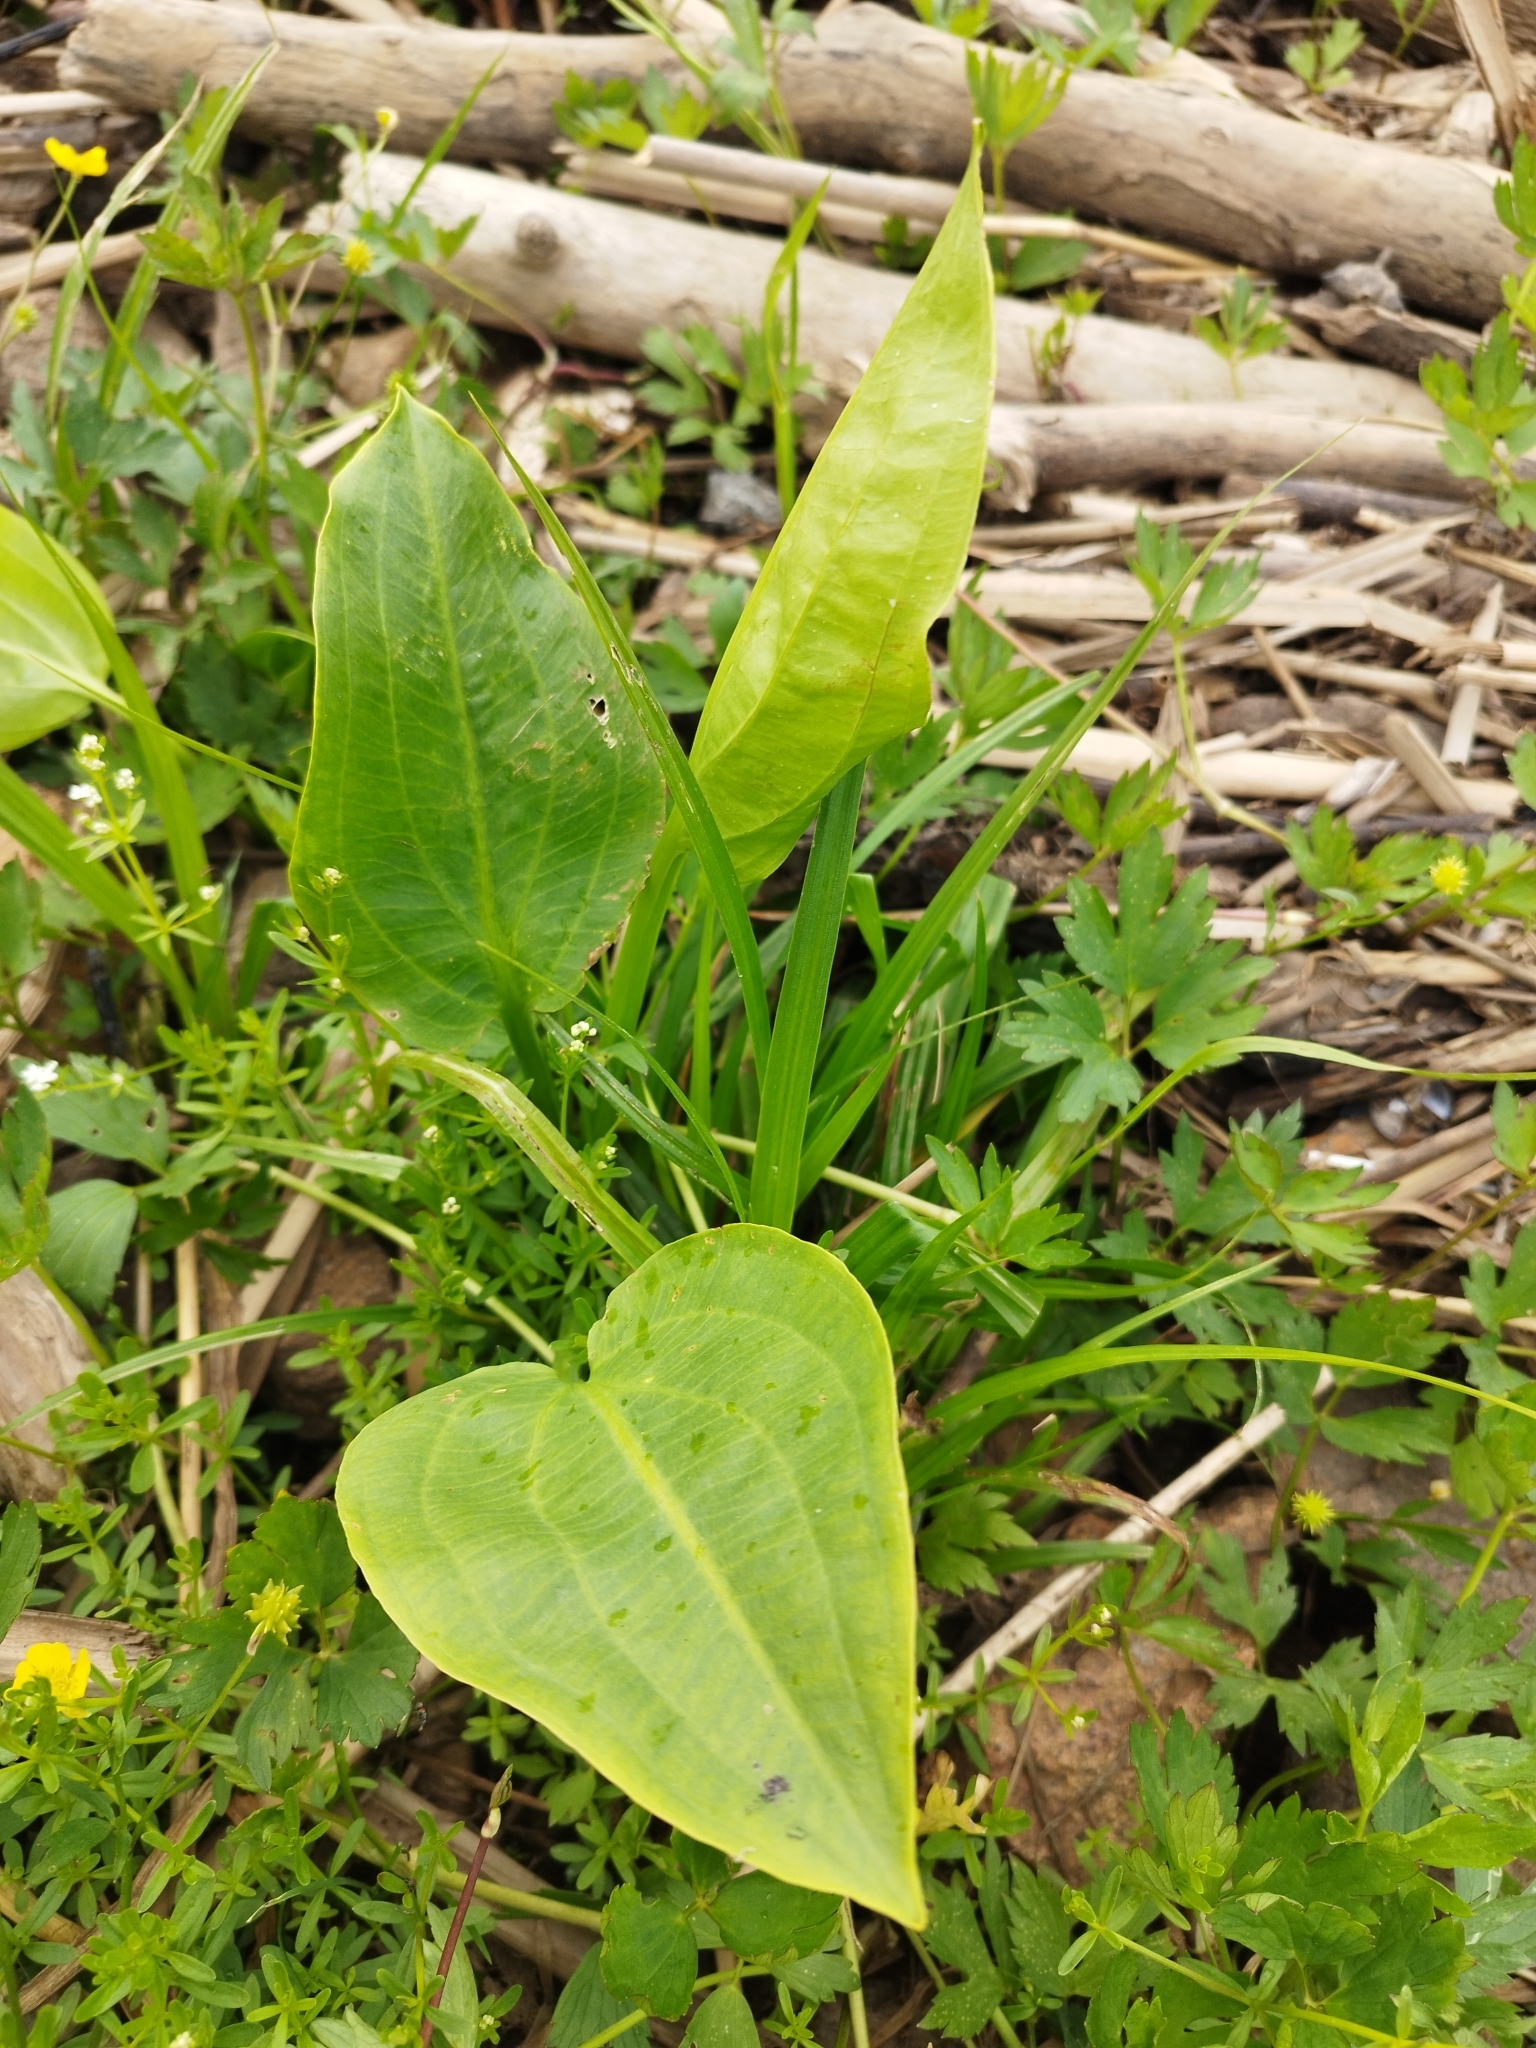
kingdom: Plantae
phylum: Tracheophyta
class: Liliopsida
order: Alismatales
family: Alismataceae
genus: Alisma
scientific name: Alisma plantago-aquatica
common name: Water-plantain
